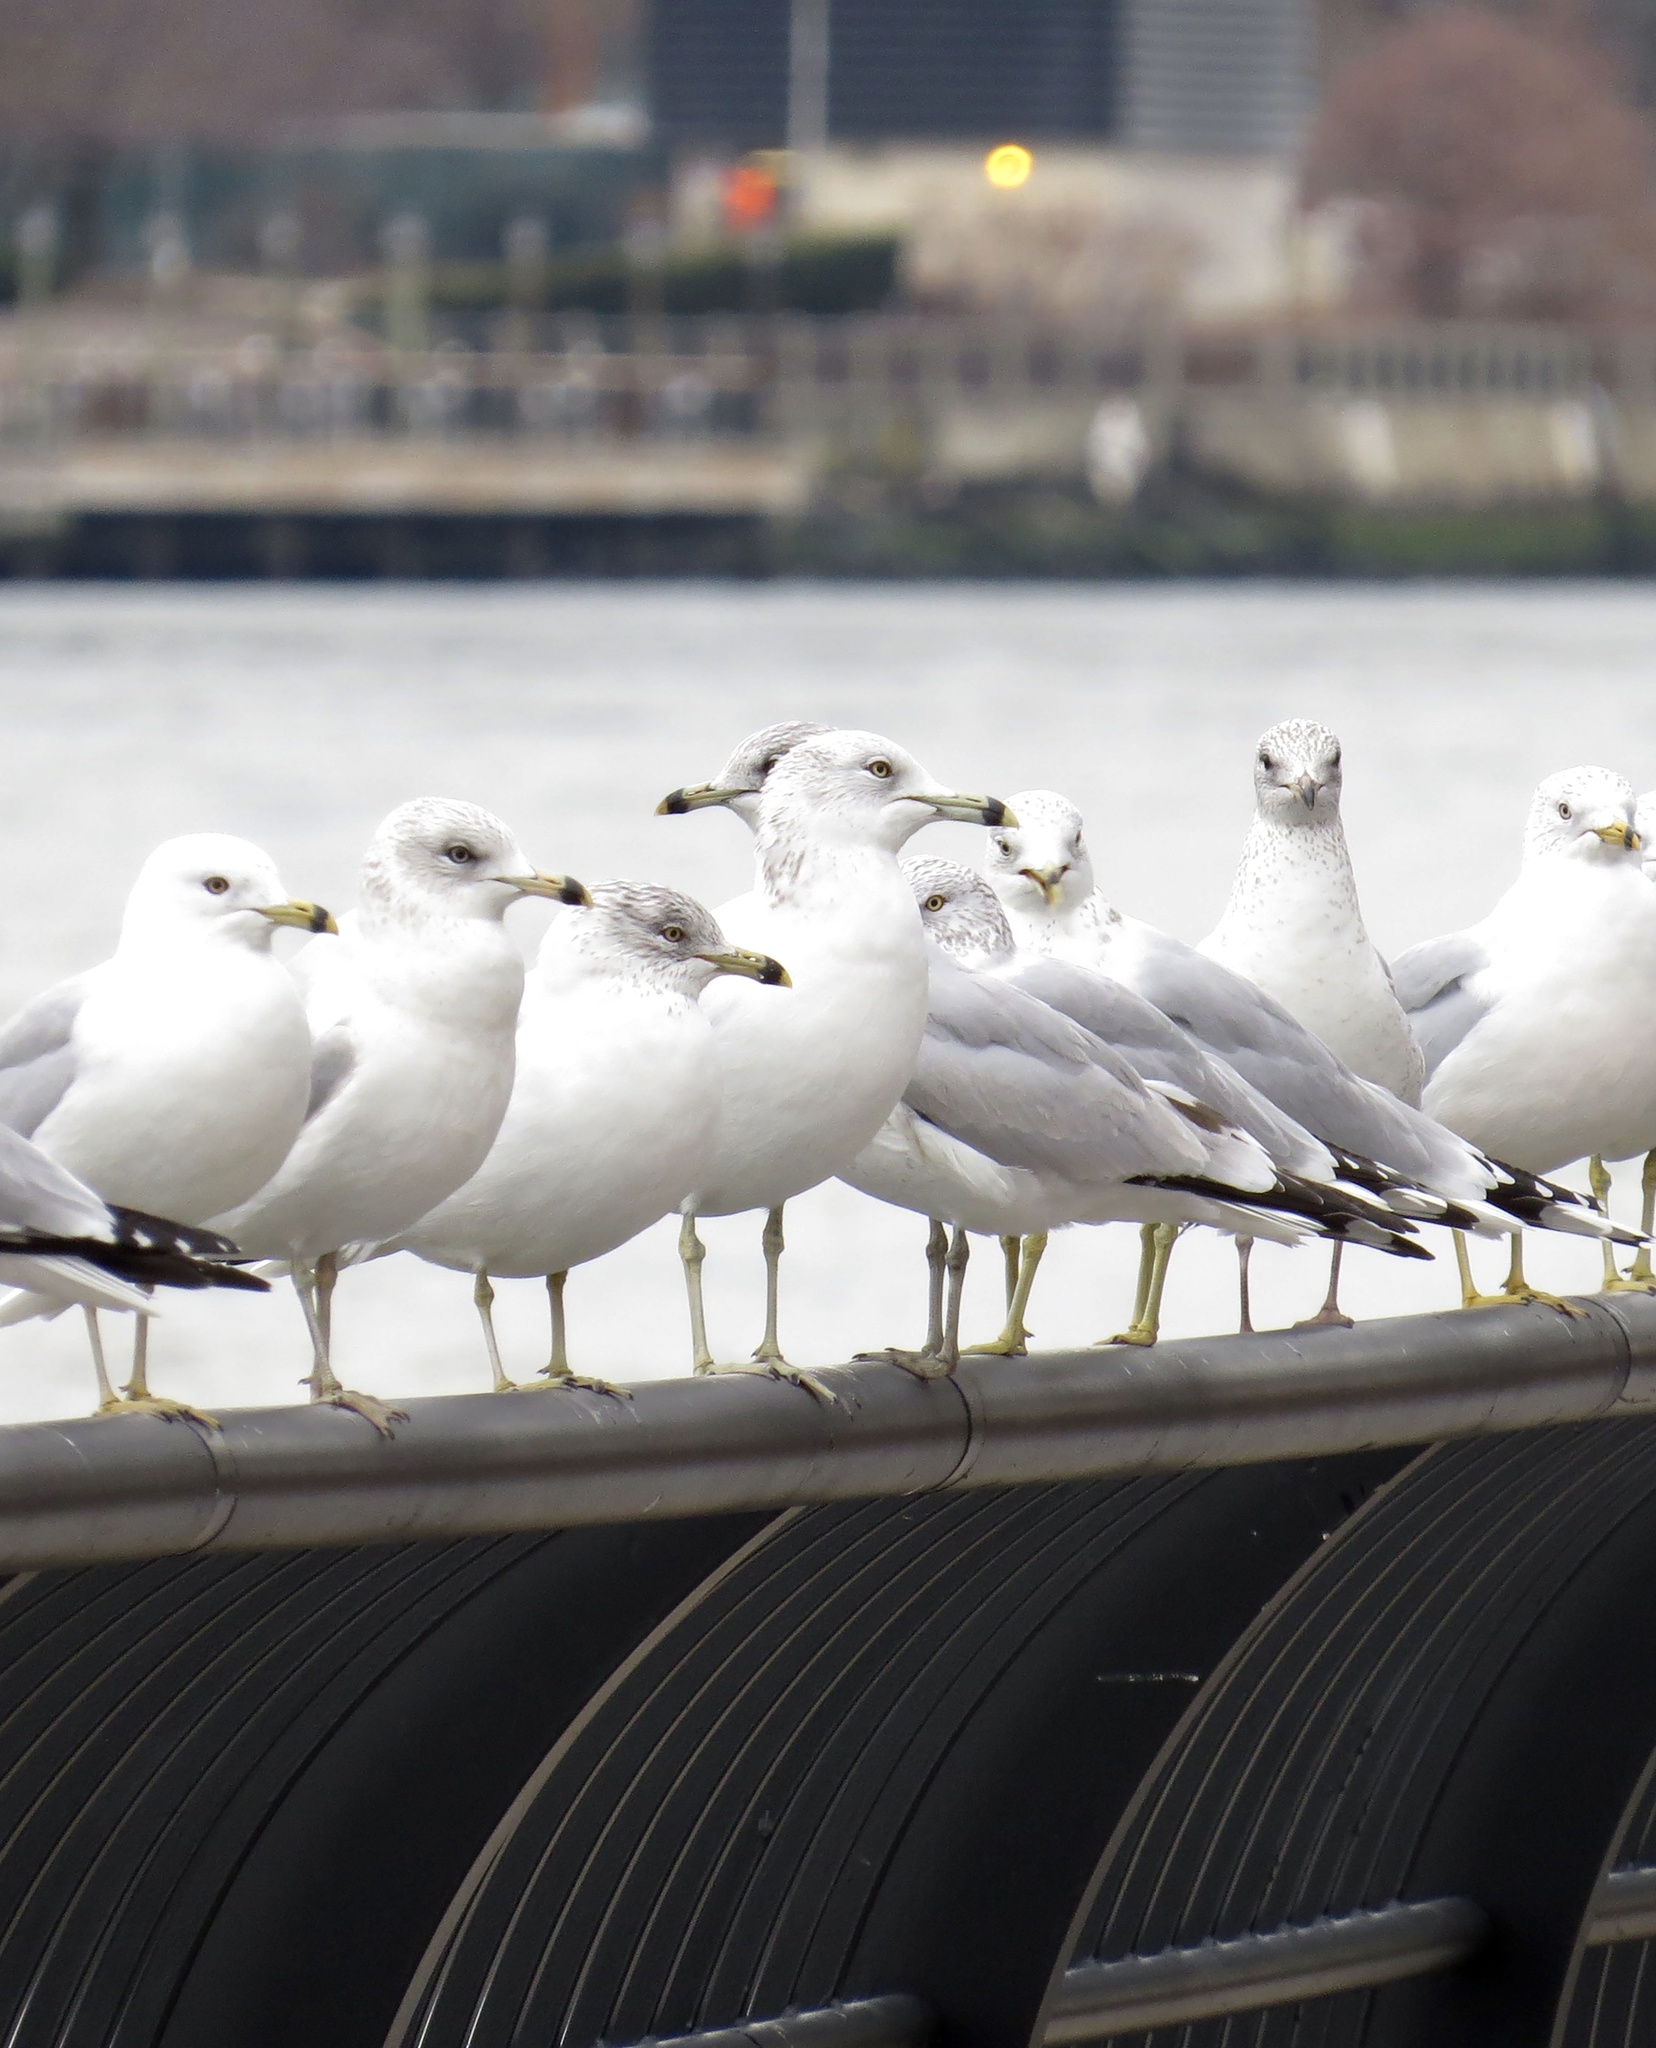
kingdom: Animalia
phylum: Chordata
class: Aves
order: Charadriiformes
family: Laridae
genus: Larus
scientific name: Larus delawarensis
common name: Ring-billed gull
